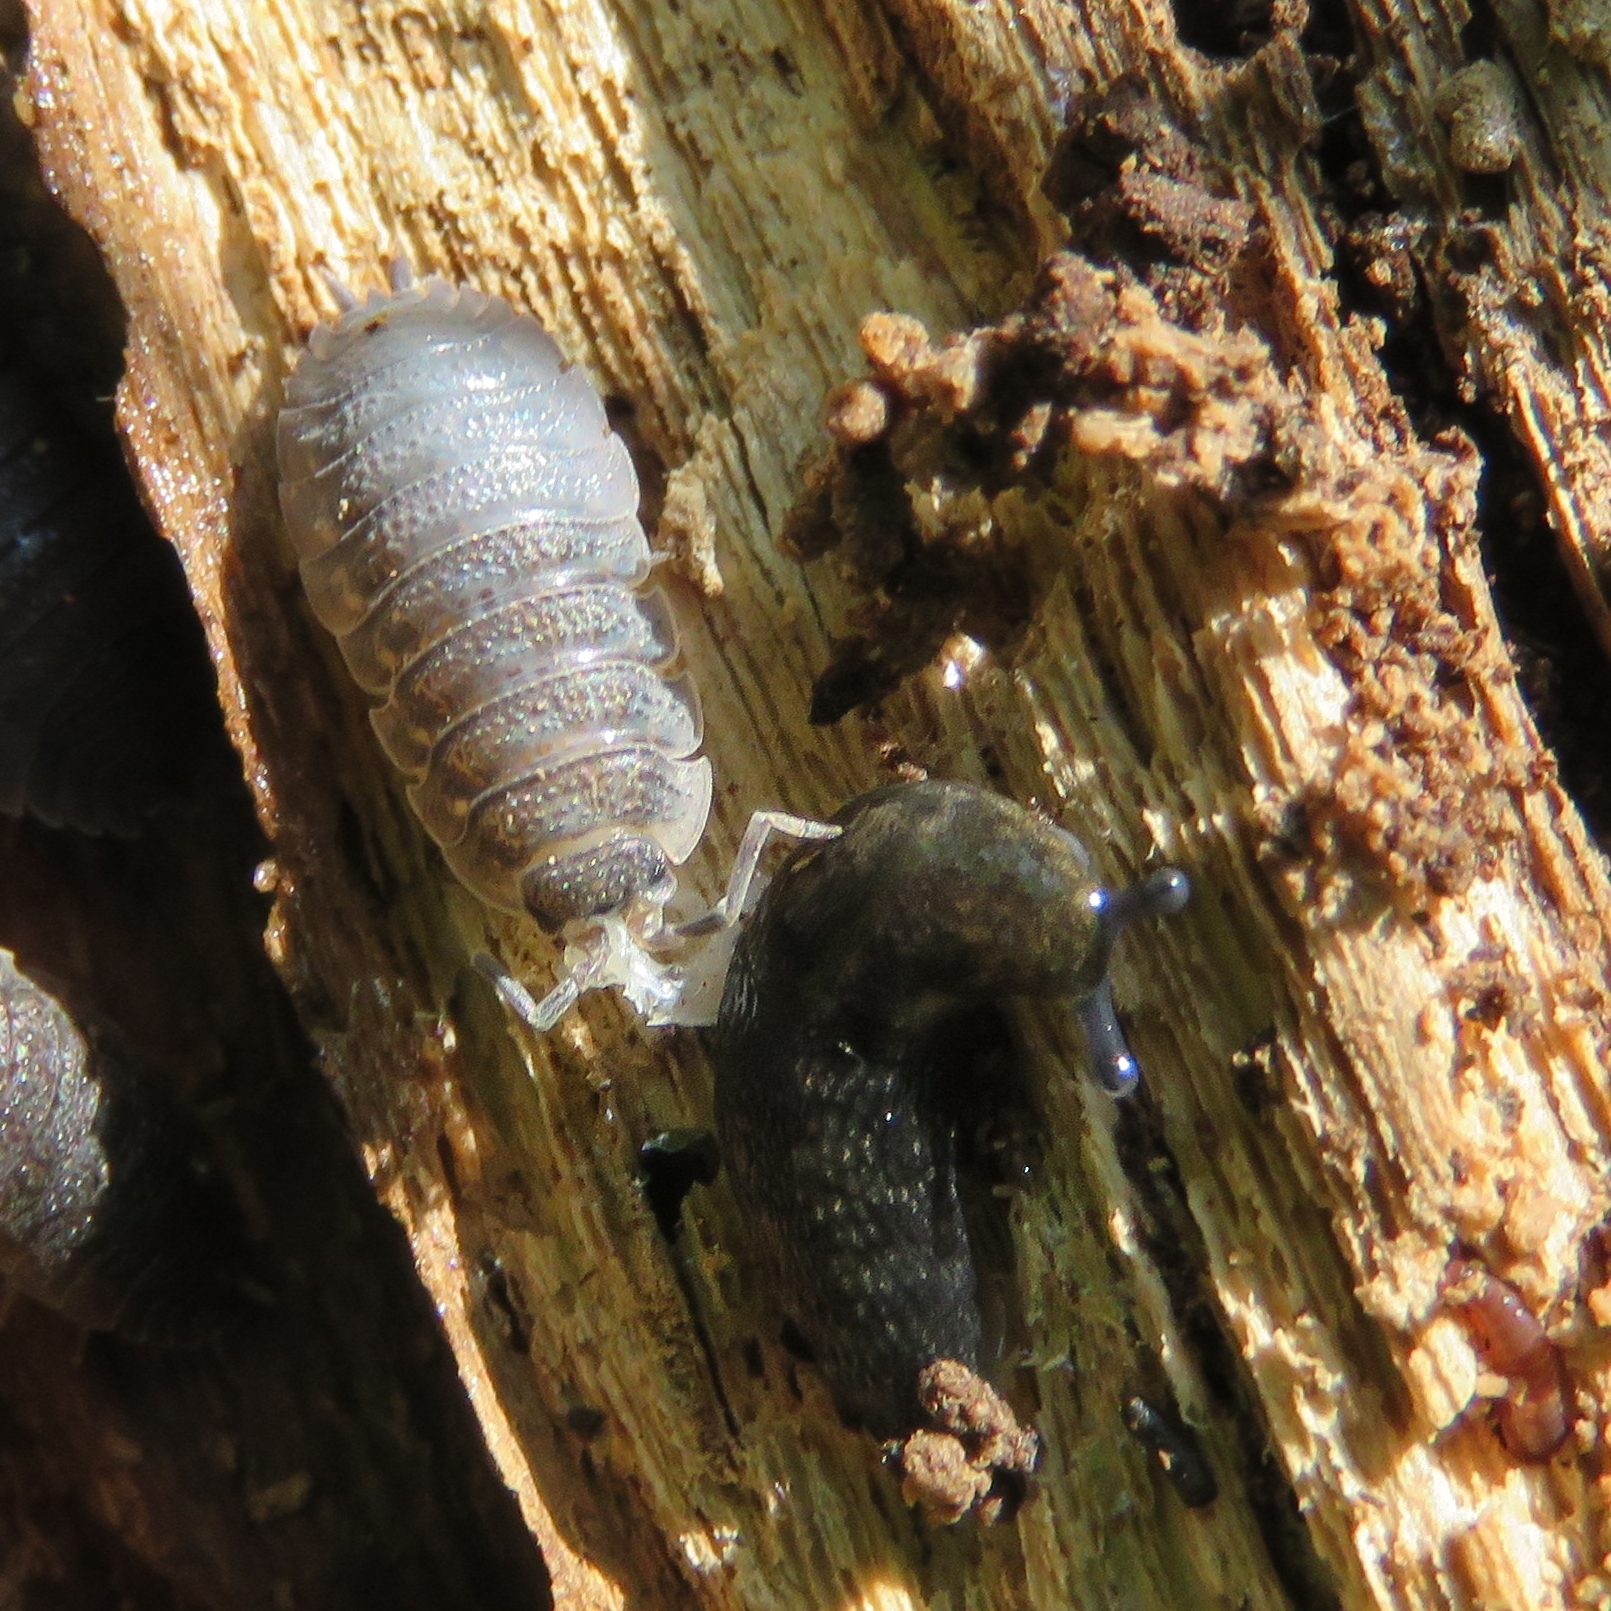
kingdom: Animalia
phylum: Arthropoda
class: Malacostraca
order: Isopoda
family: Porcellionidae
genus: Porcellio
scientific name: Porcellio scaber
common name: Common rough woodlouse
